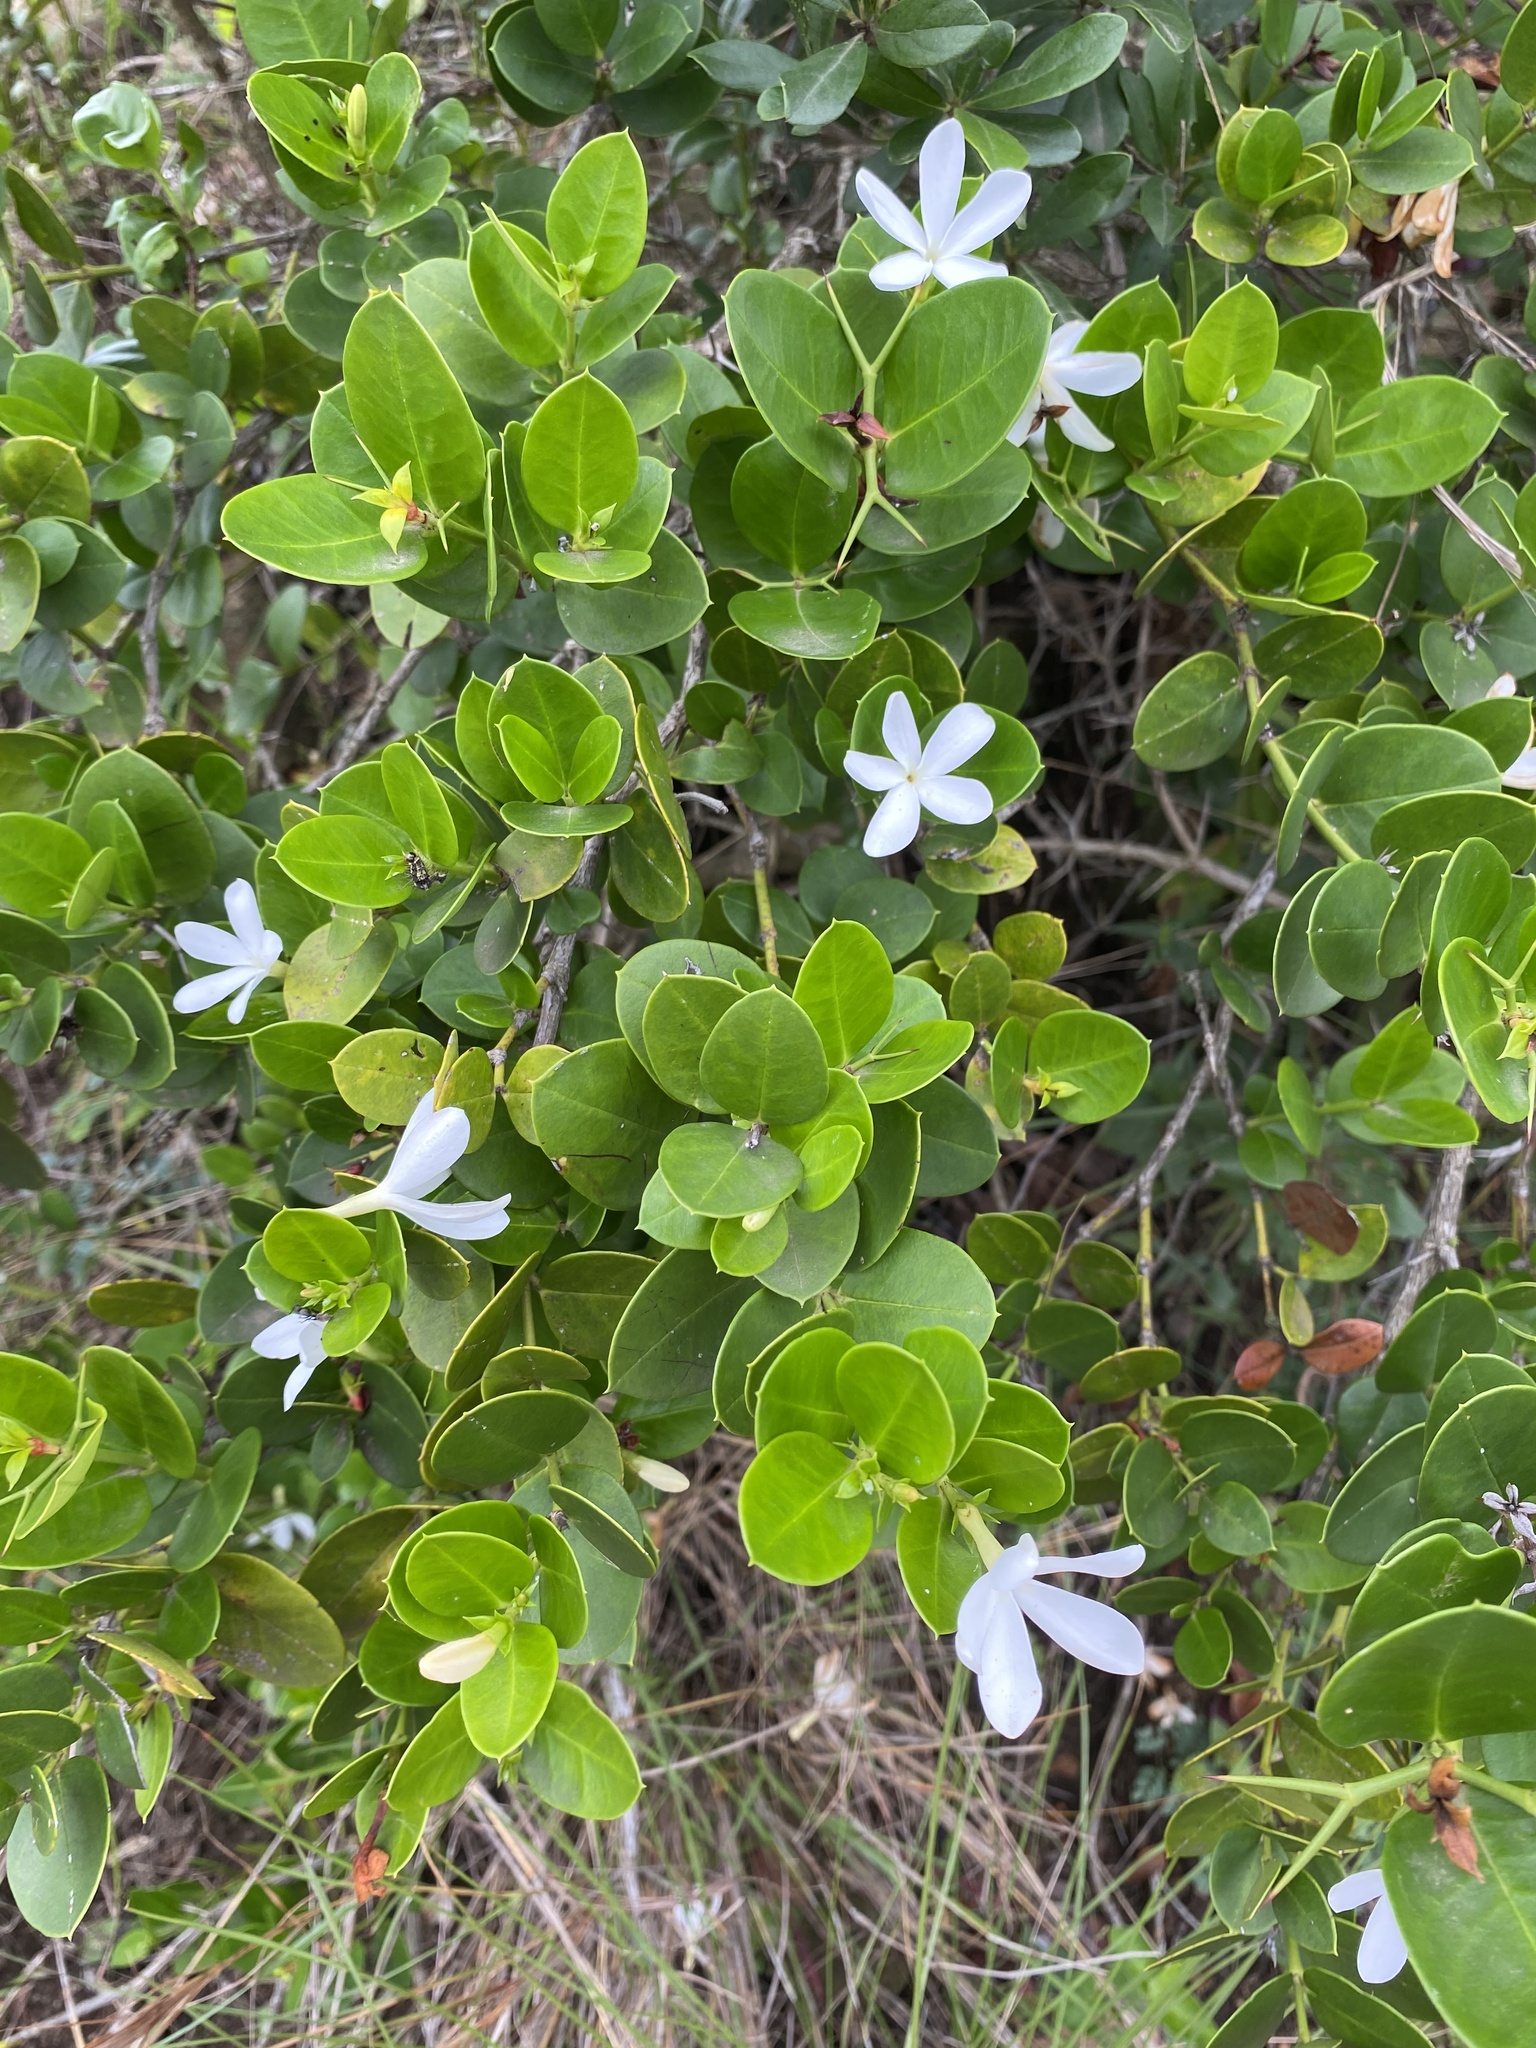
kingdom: Plantae
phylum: Tracheophyta
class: Magnoliopsida
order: Gentianales
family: Apocynaceae
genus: Carissa
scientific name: Carissa macrocarpa
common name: Natal plum
